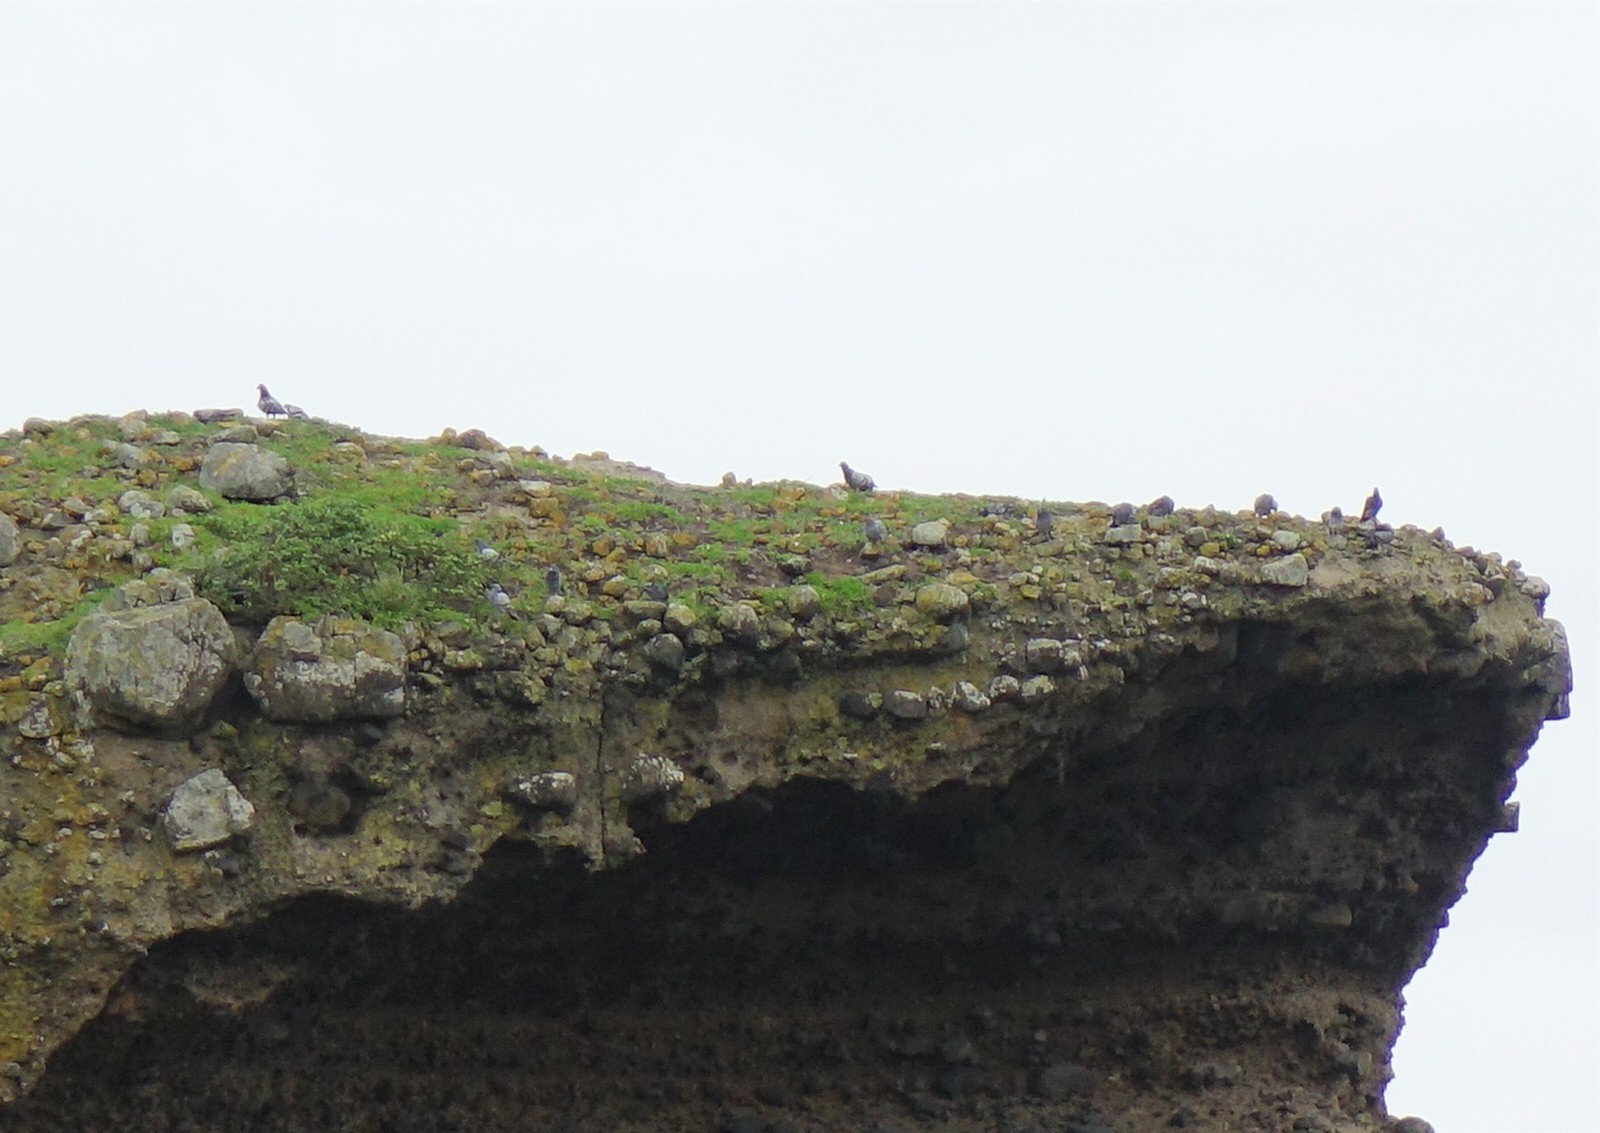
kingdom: Animalia
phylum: Chordata
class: Aves
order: Columbiformes
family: Columbidae
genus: Columba
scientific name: Columba livia
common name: Rock pigeon
